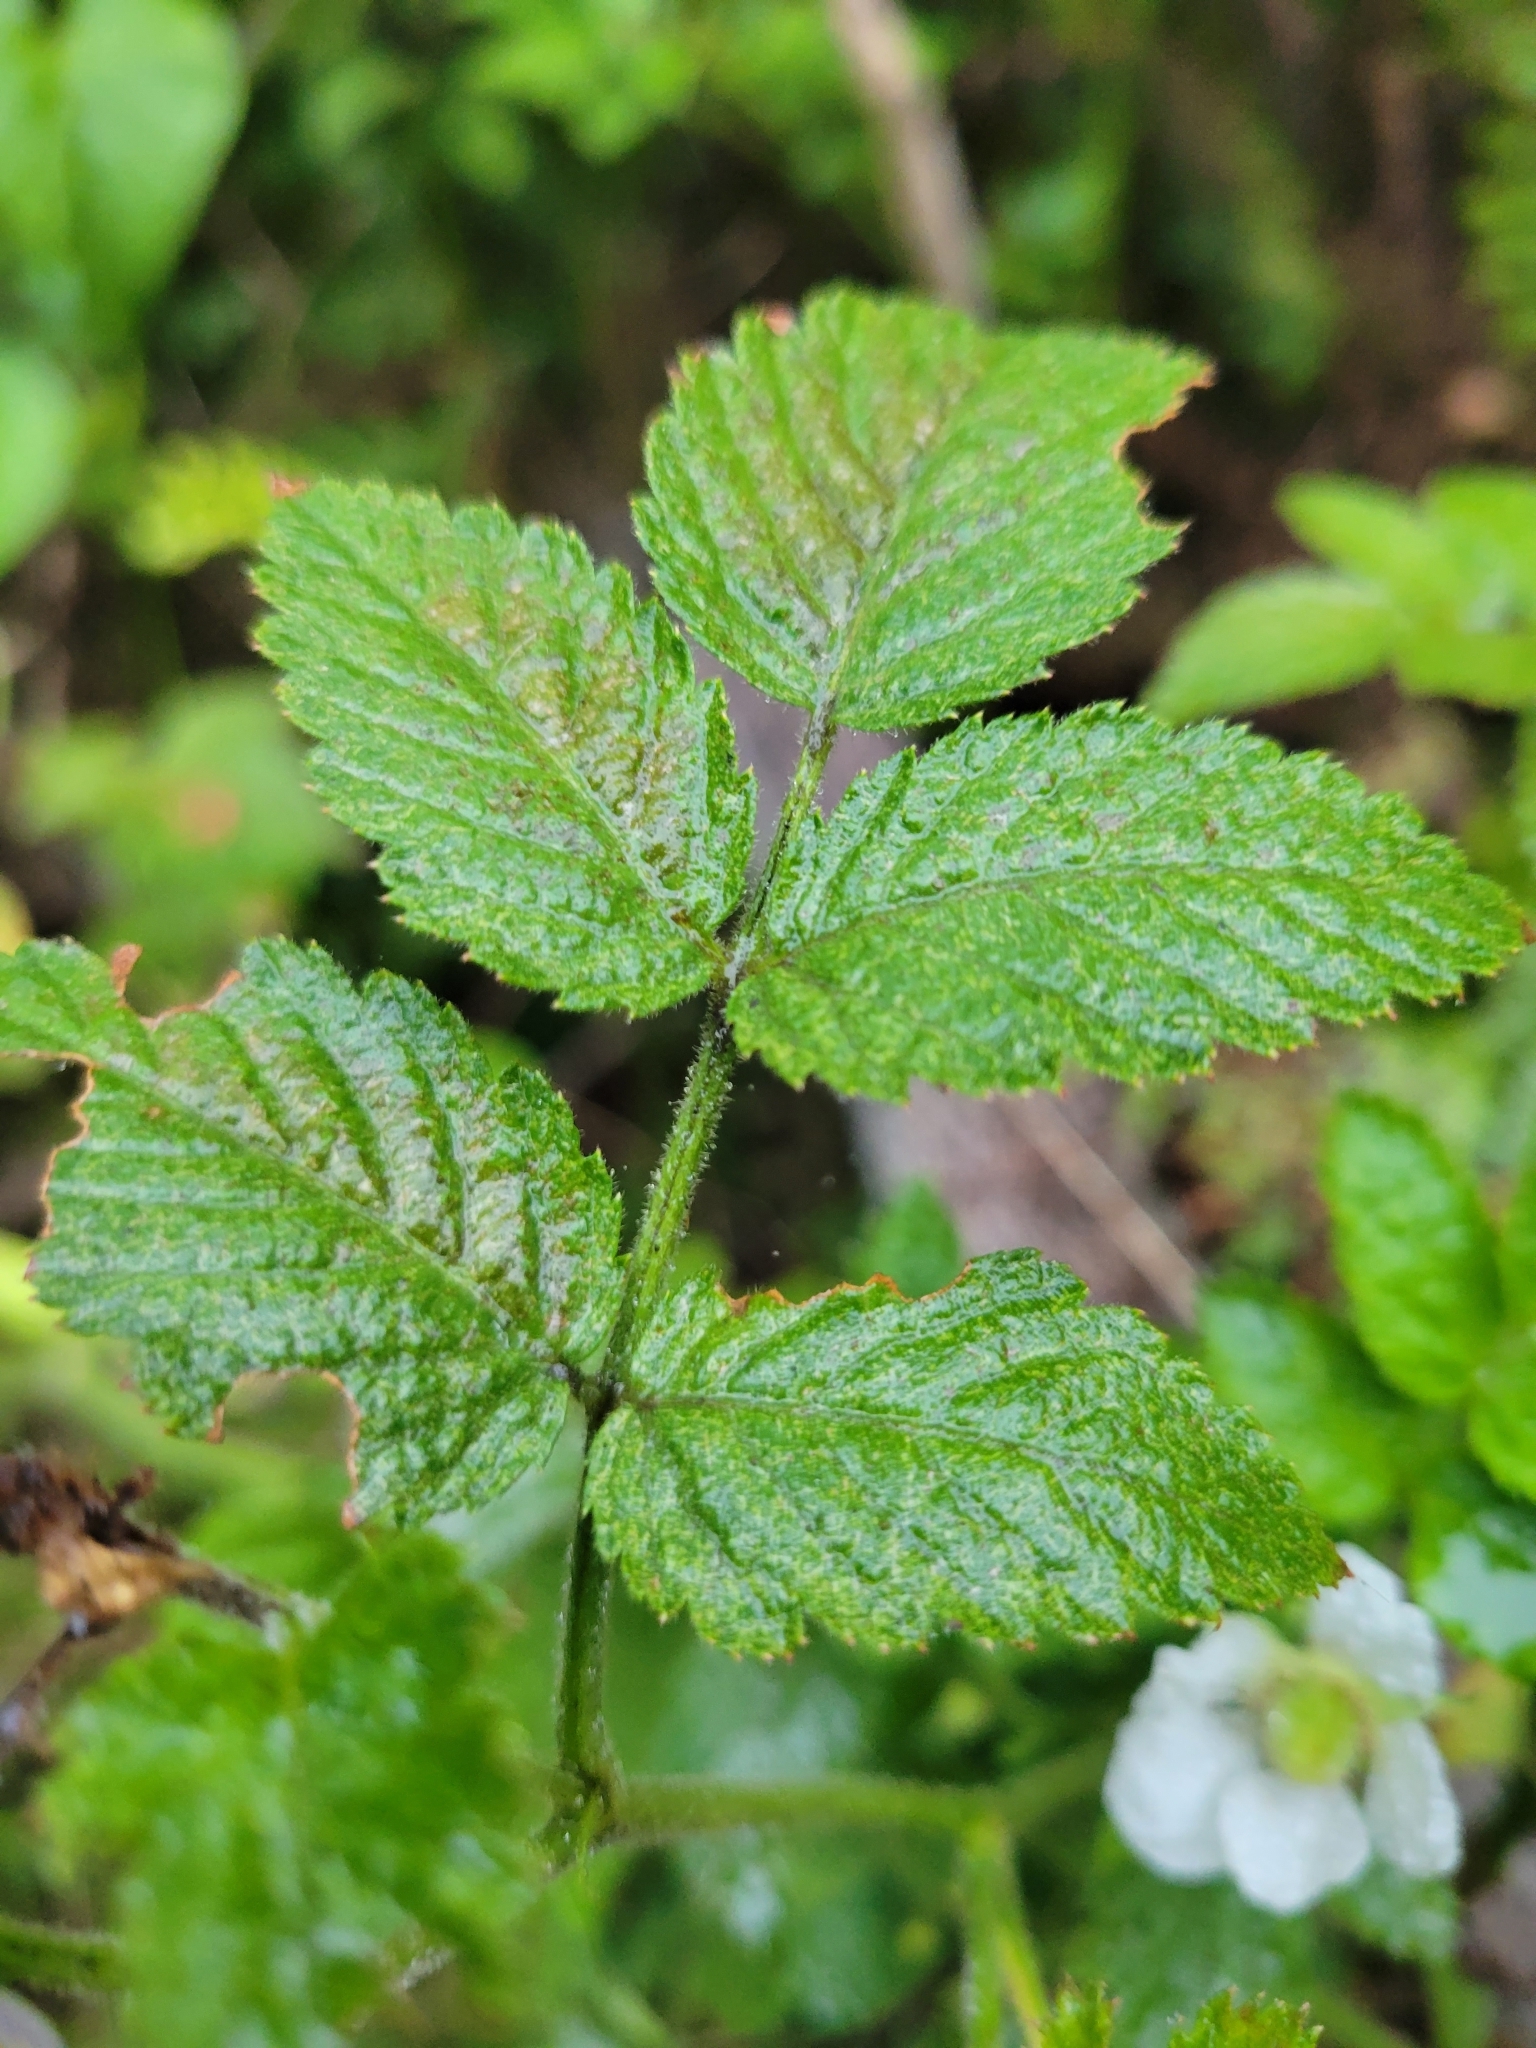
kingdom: Plantae
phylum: Tracheophyta
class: Magnoliopsida
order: Rosales
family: Rosaceae
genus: Rubus
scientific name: Rubus rosifolius
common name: Roseleaf raspberry
